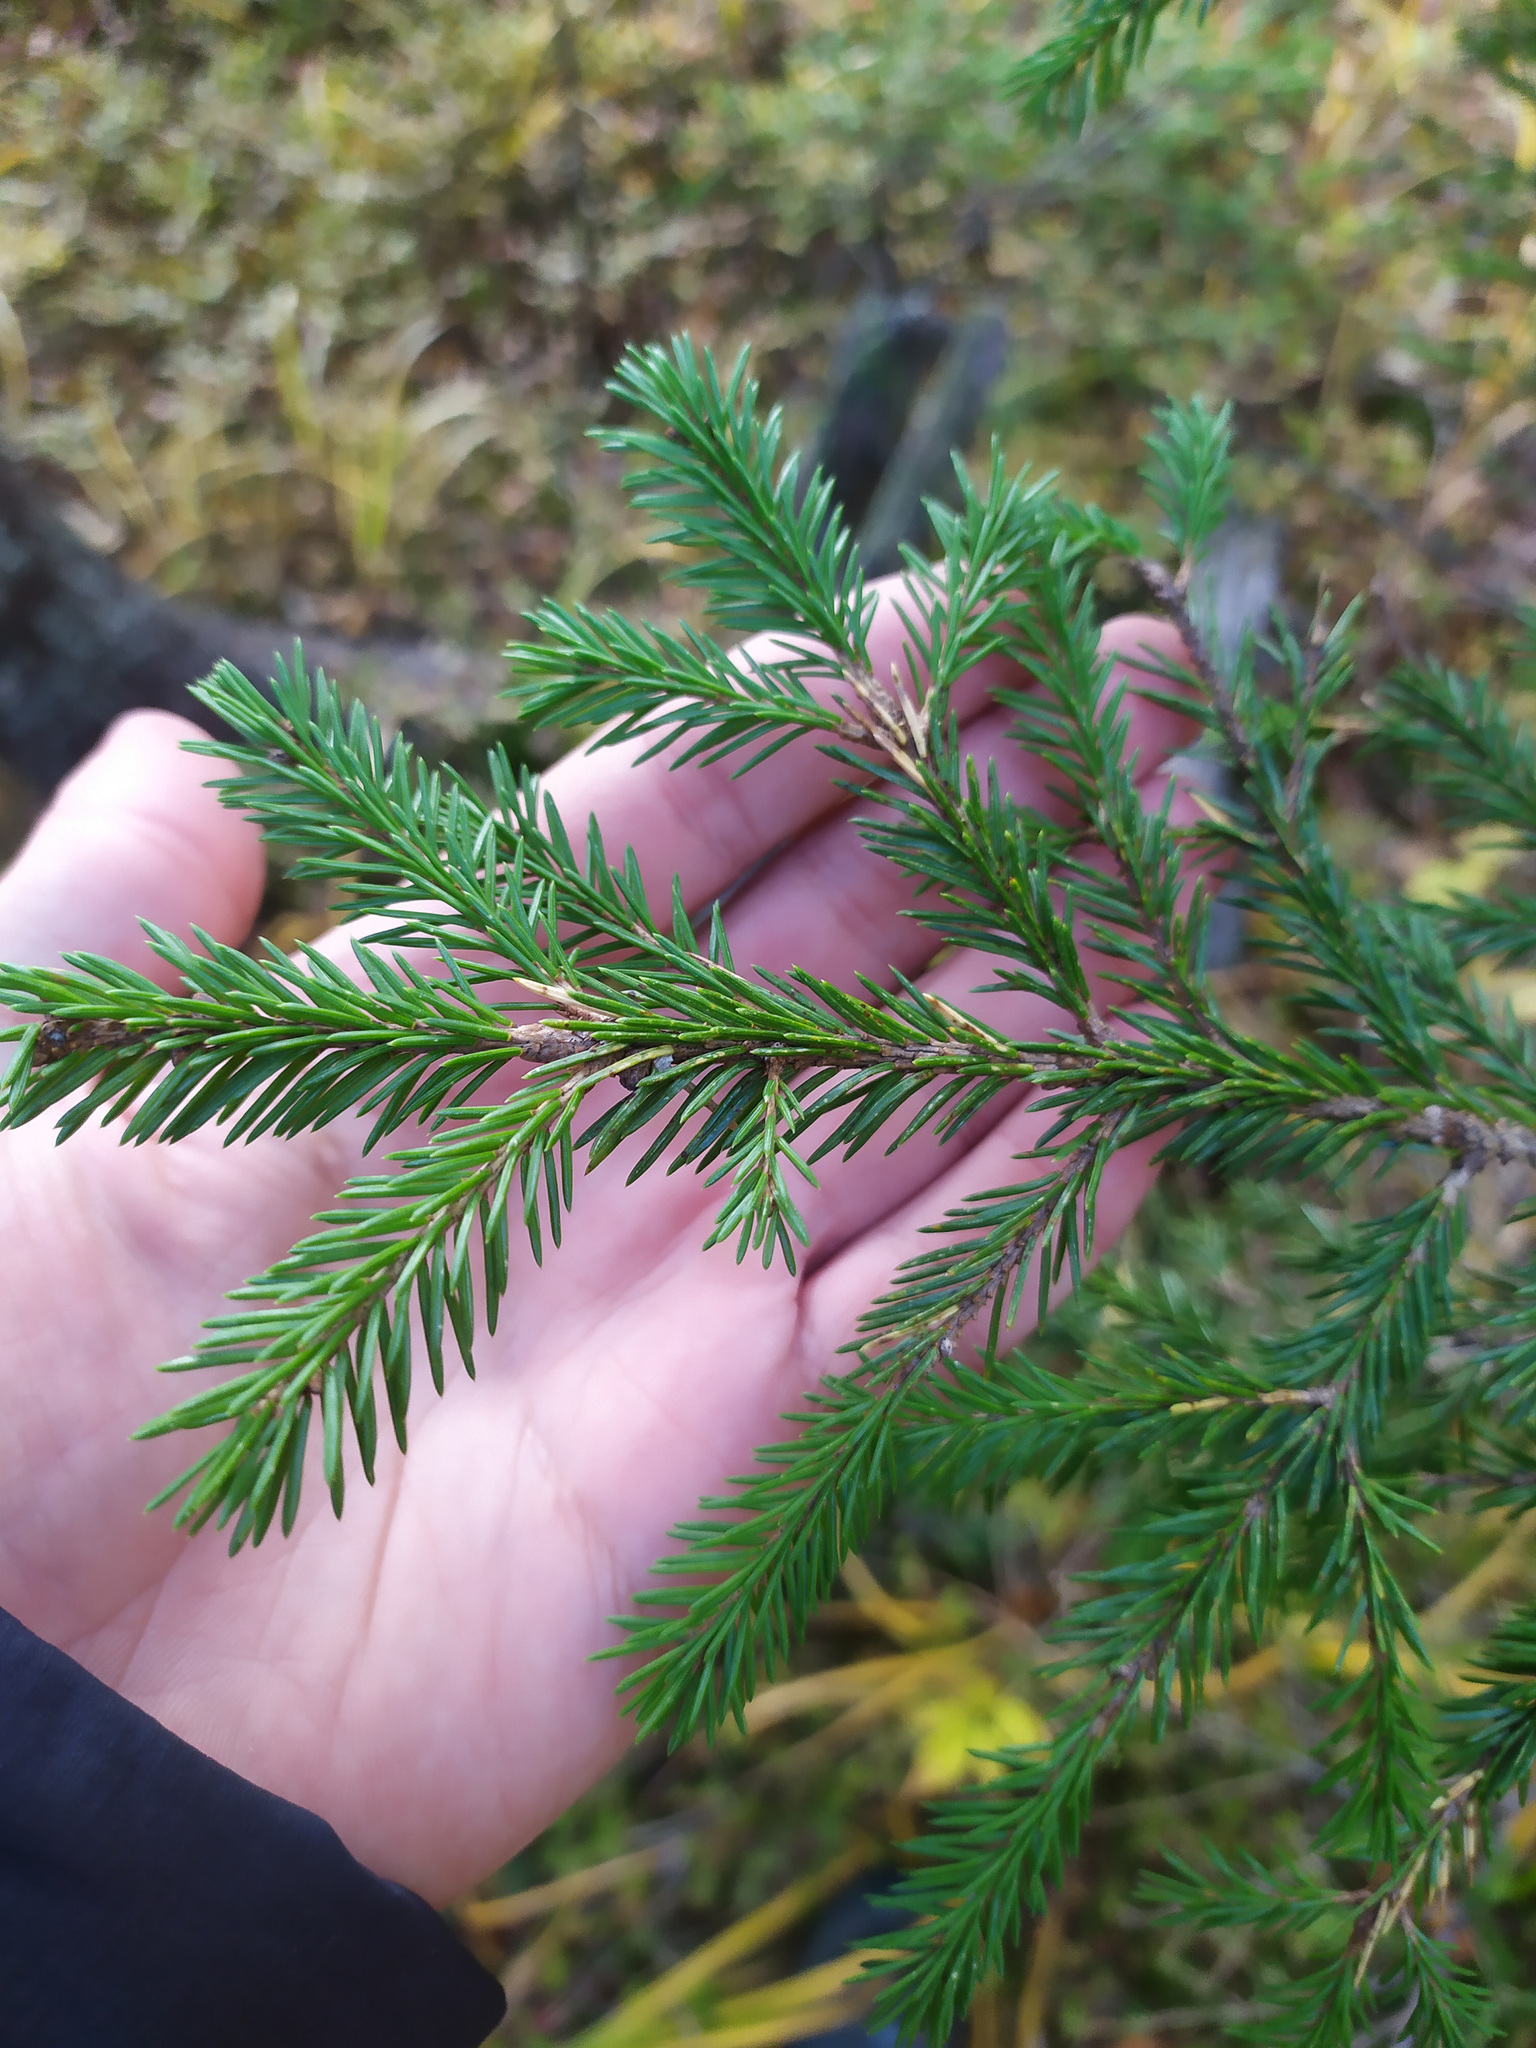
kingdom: Plantae
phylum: Tracheophyta
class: Pinopsida
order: Pinales
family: Pinaceae
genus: Picea
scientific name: Picea
